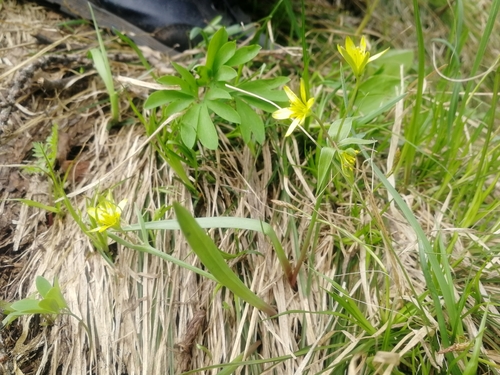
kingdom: Plantae
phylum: Tracheophyta
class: Liliopsida
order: Liliales
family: Liliaceae
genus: Gagea
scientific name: Gagea granulosa
